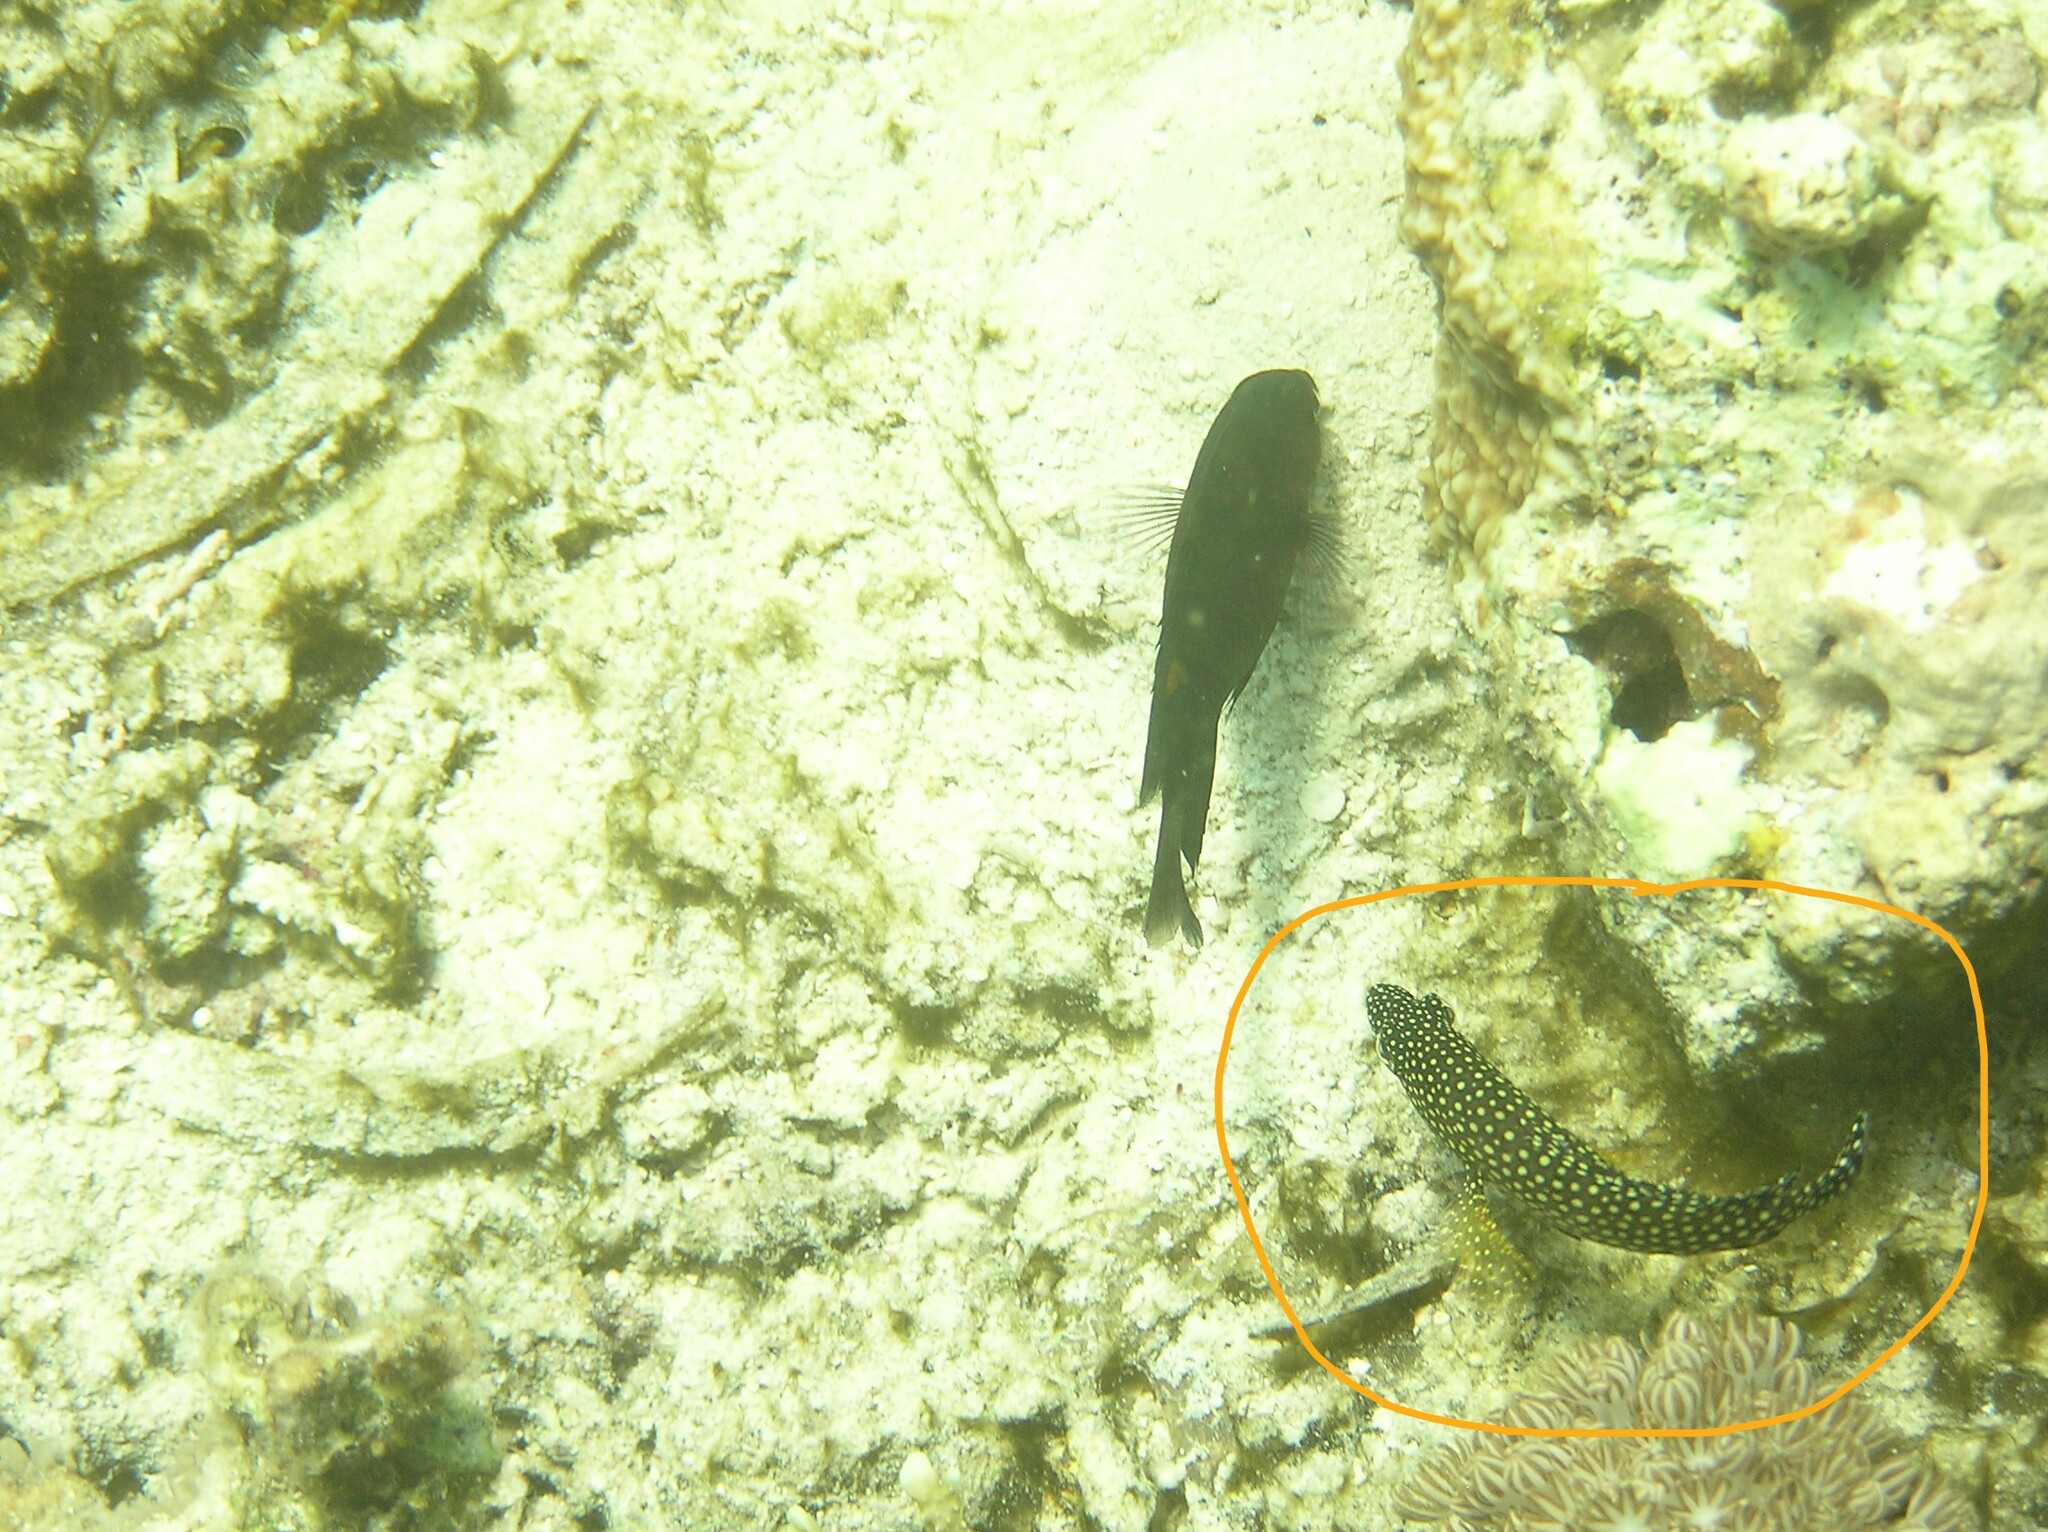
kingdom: Animalia
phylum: Chordata
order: Perciformes
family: Serranidae
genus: Epinephelus
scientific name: Epinephelus ongus
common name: White-streaked grouper
